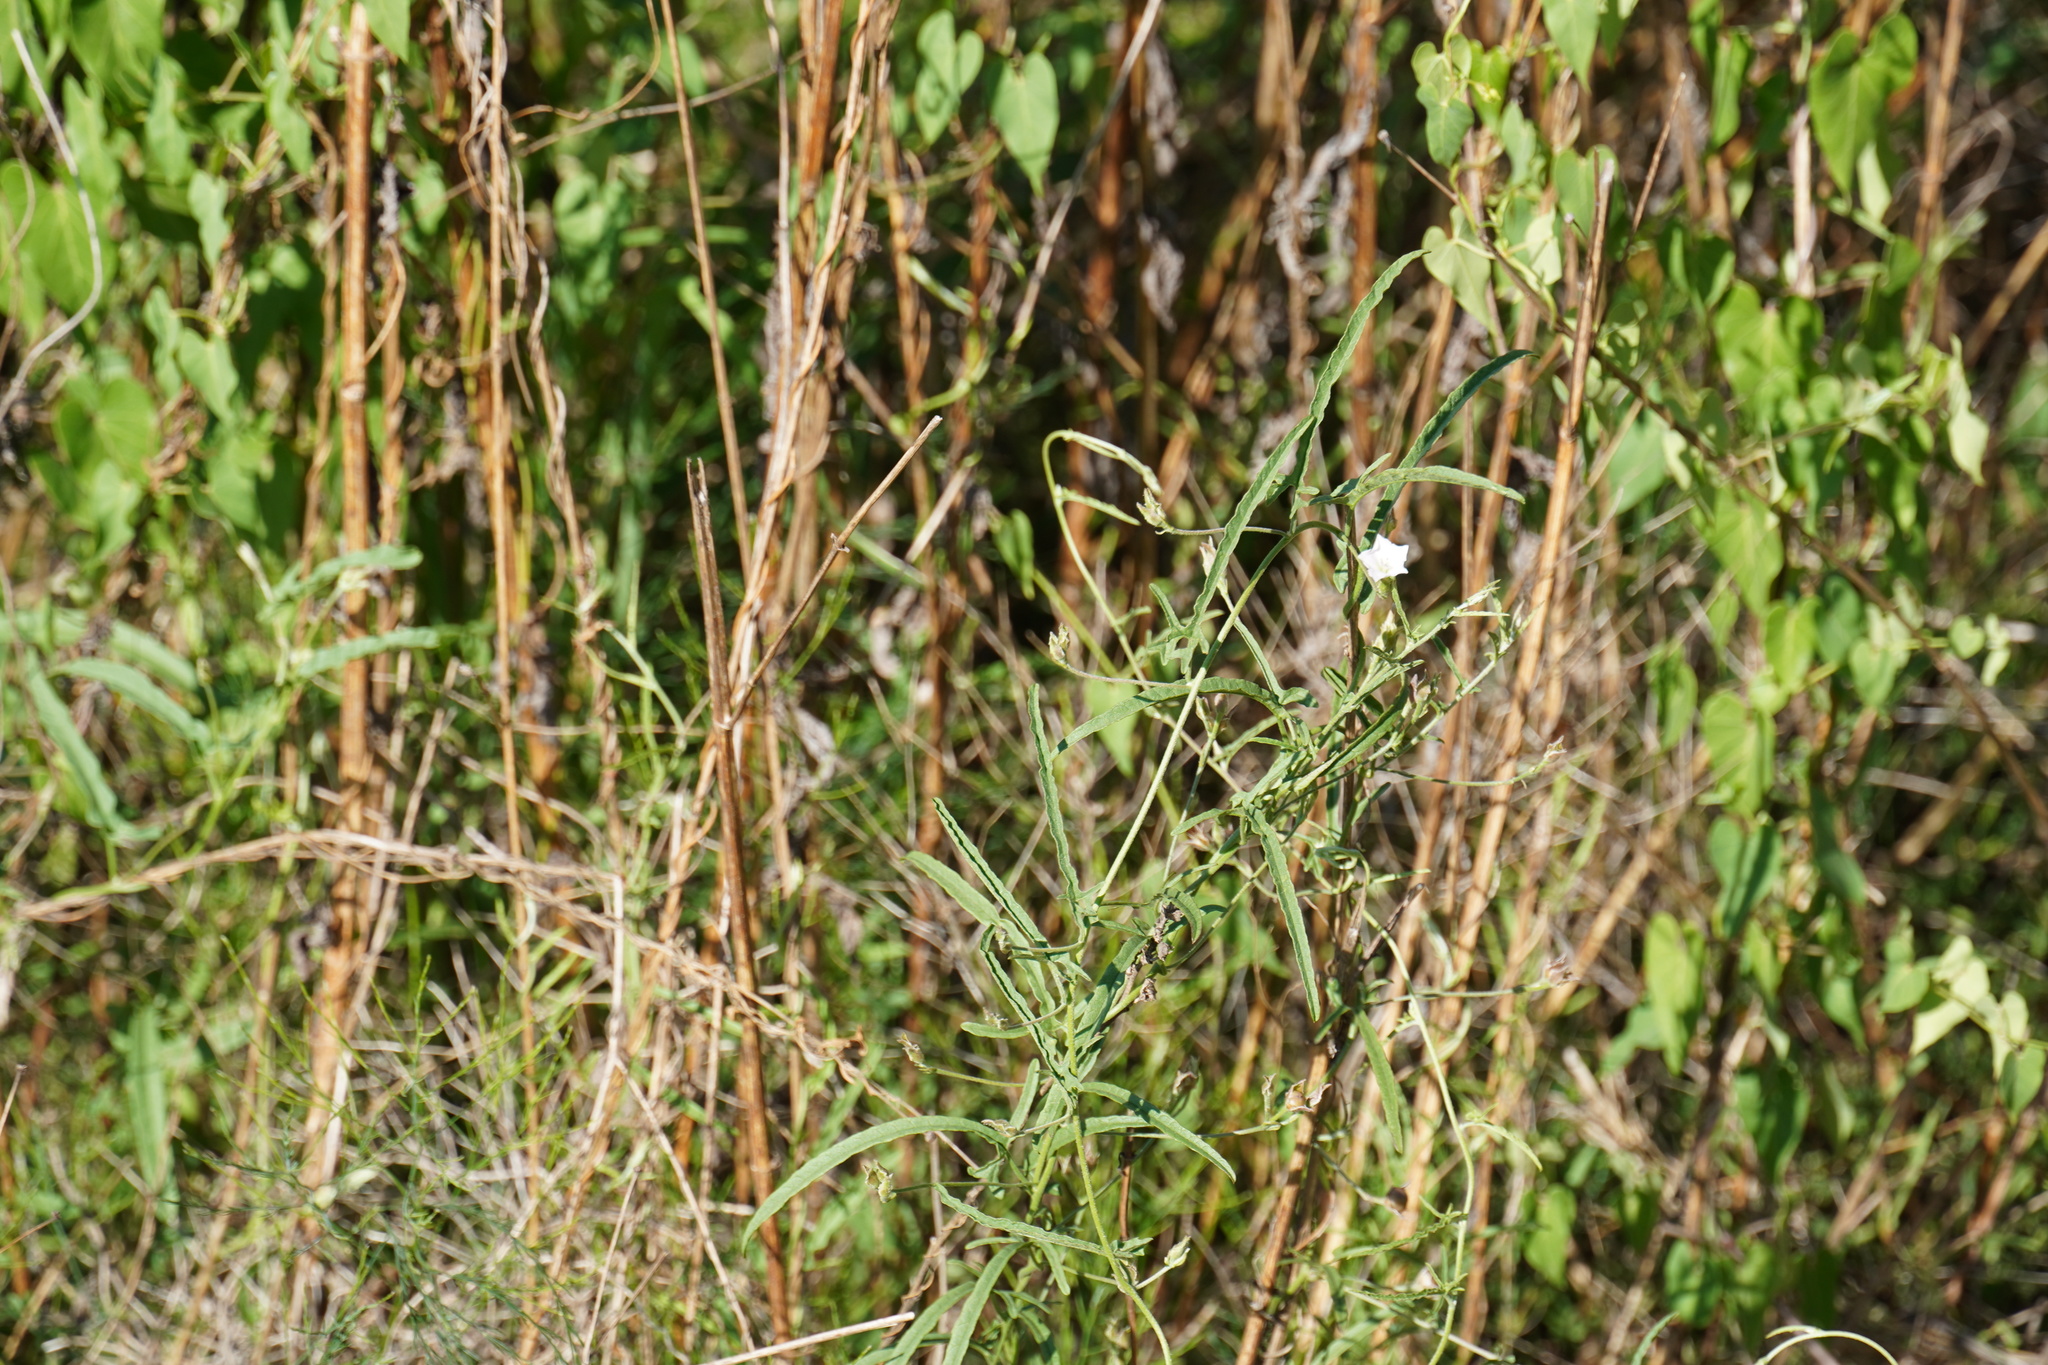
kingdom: Plantae
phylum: Tracheophyta
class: Magnoliopsida
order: Solanales
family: Convolvulaceae
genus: Convolvulus
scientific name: Convolvulus sagittatus
